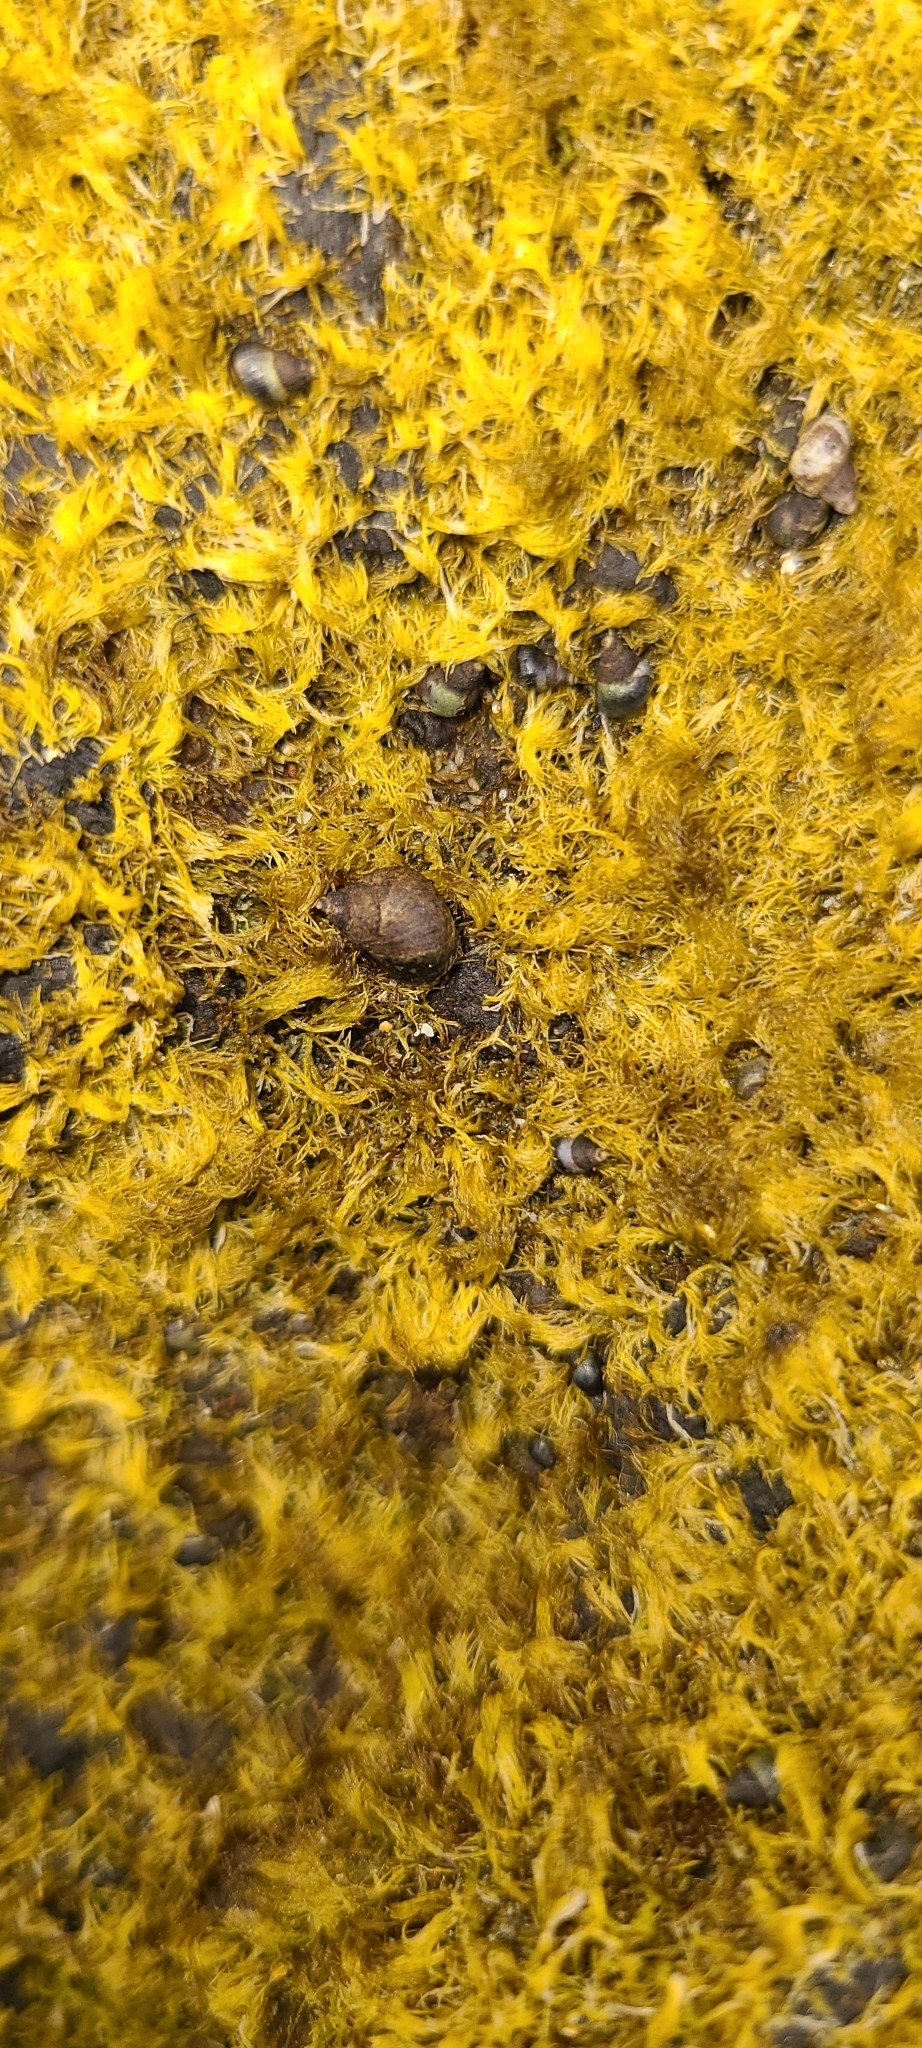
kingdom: Animalia
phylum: Mollusca
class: Gastropoda
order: Littorinimorpha
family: Littorinidae
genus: Austrolittorina
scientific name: Austrolittorina cincta
